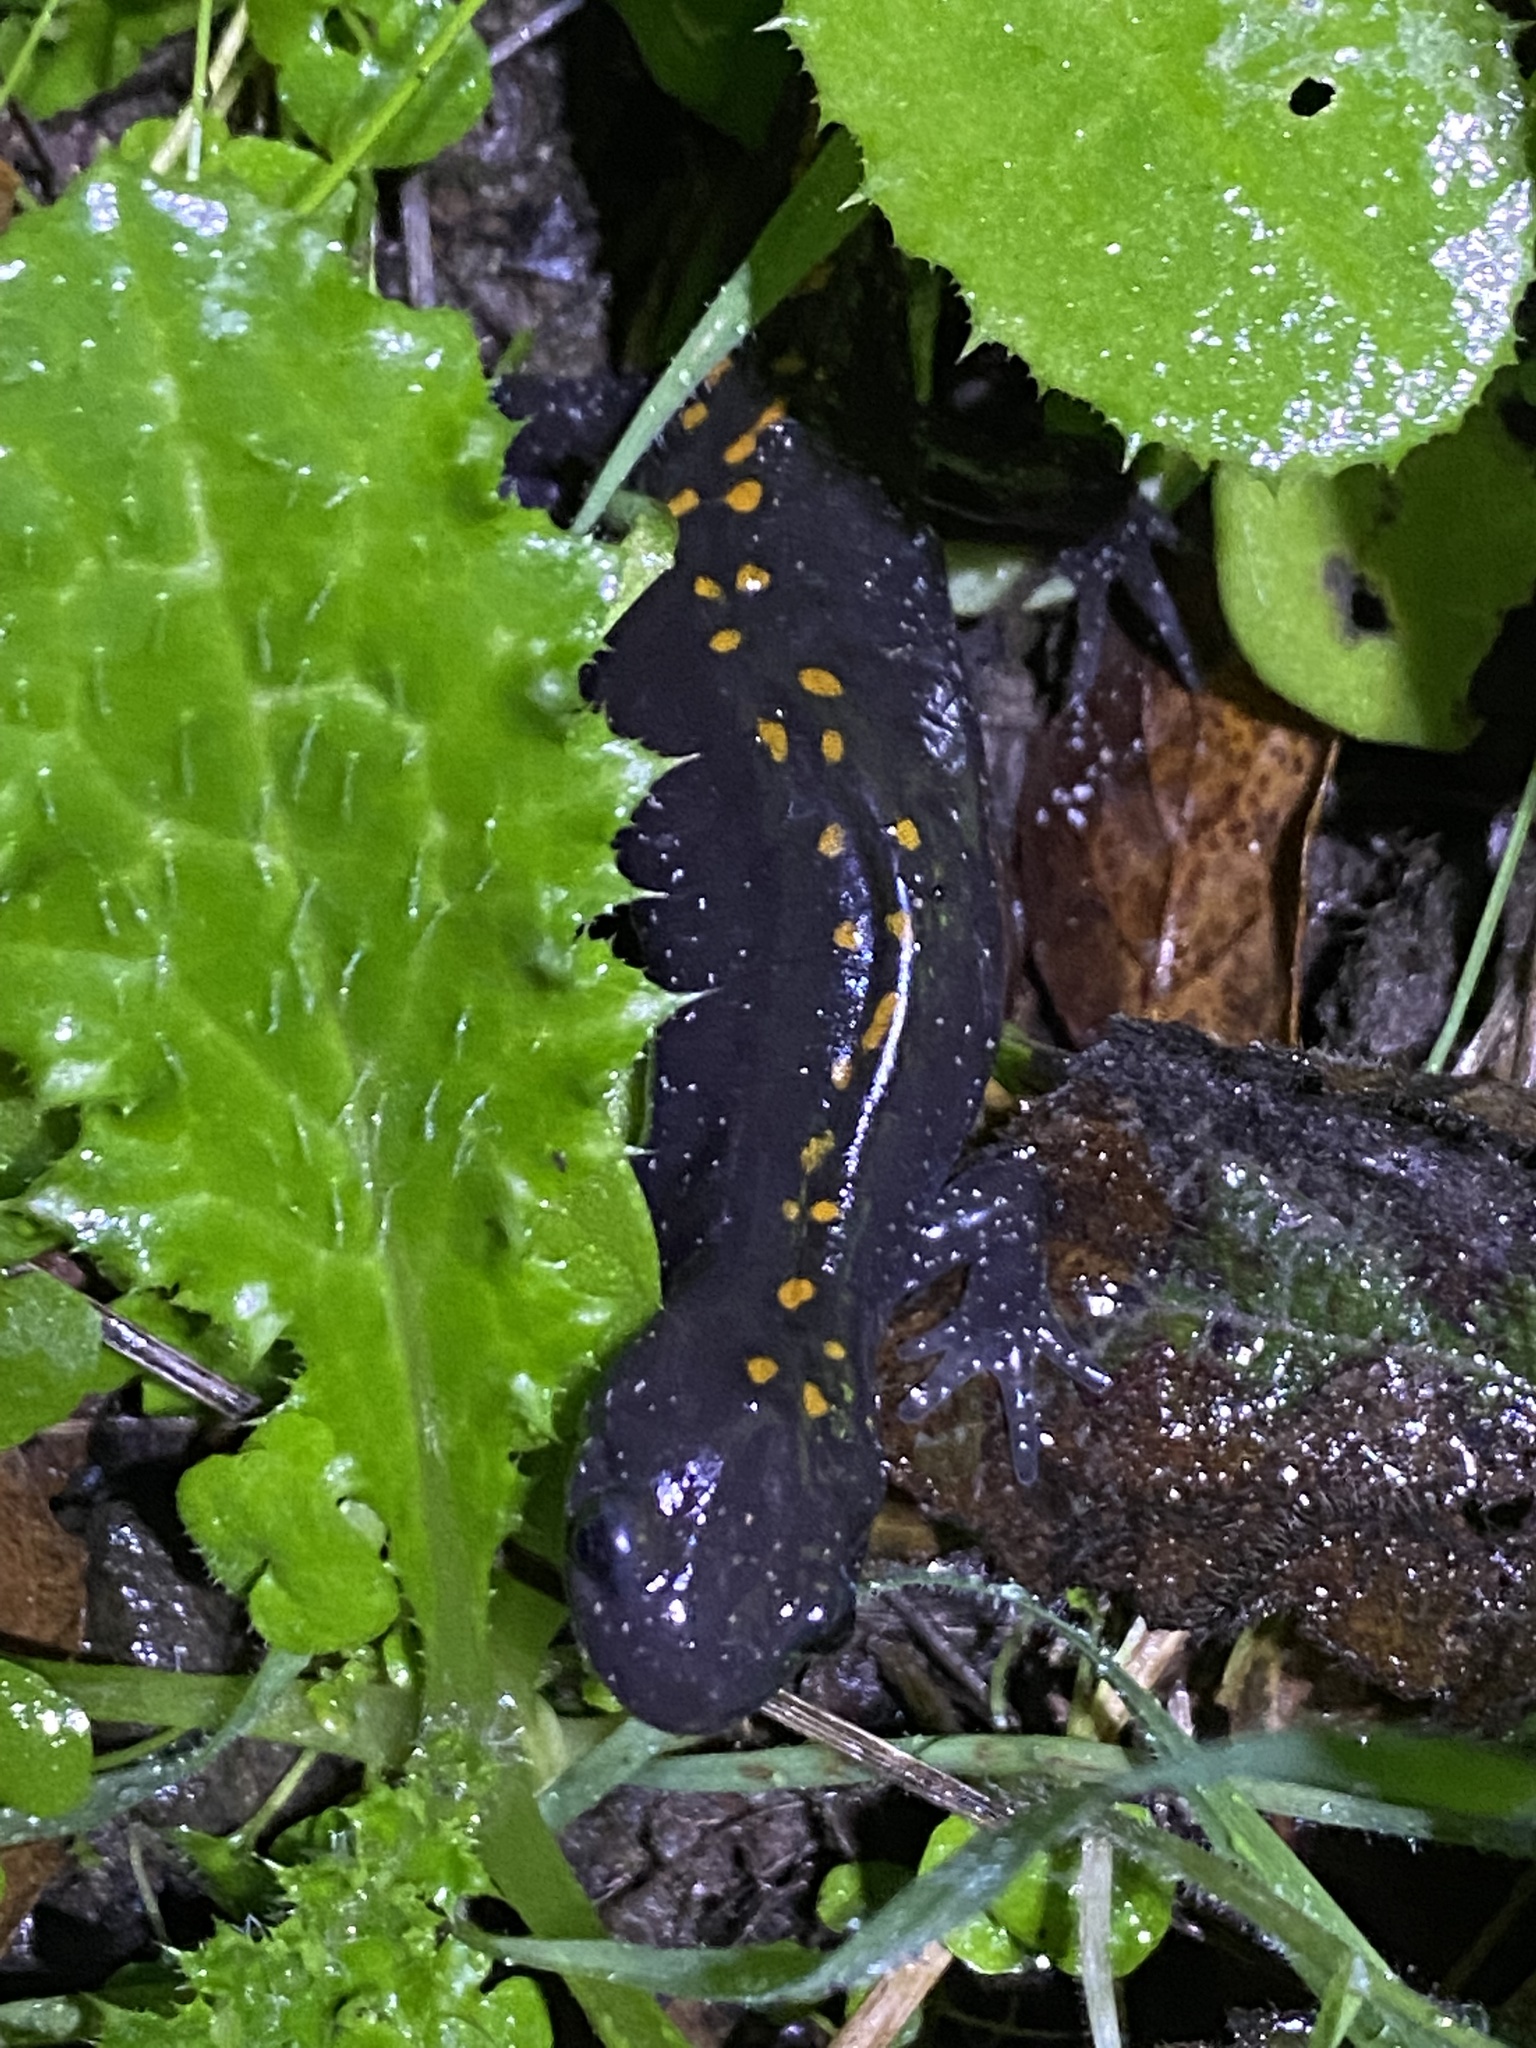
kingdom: Animalia
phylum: Chordata
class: Amphibia
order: Caudata
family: Ambystomatidae
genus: Ambystoma
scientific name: Ambystoma macrodactylum
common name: Long-toed salamander
